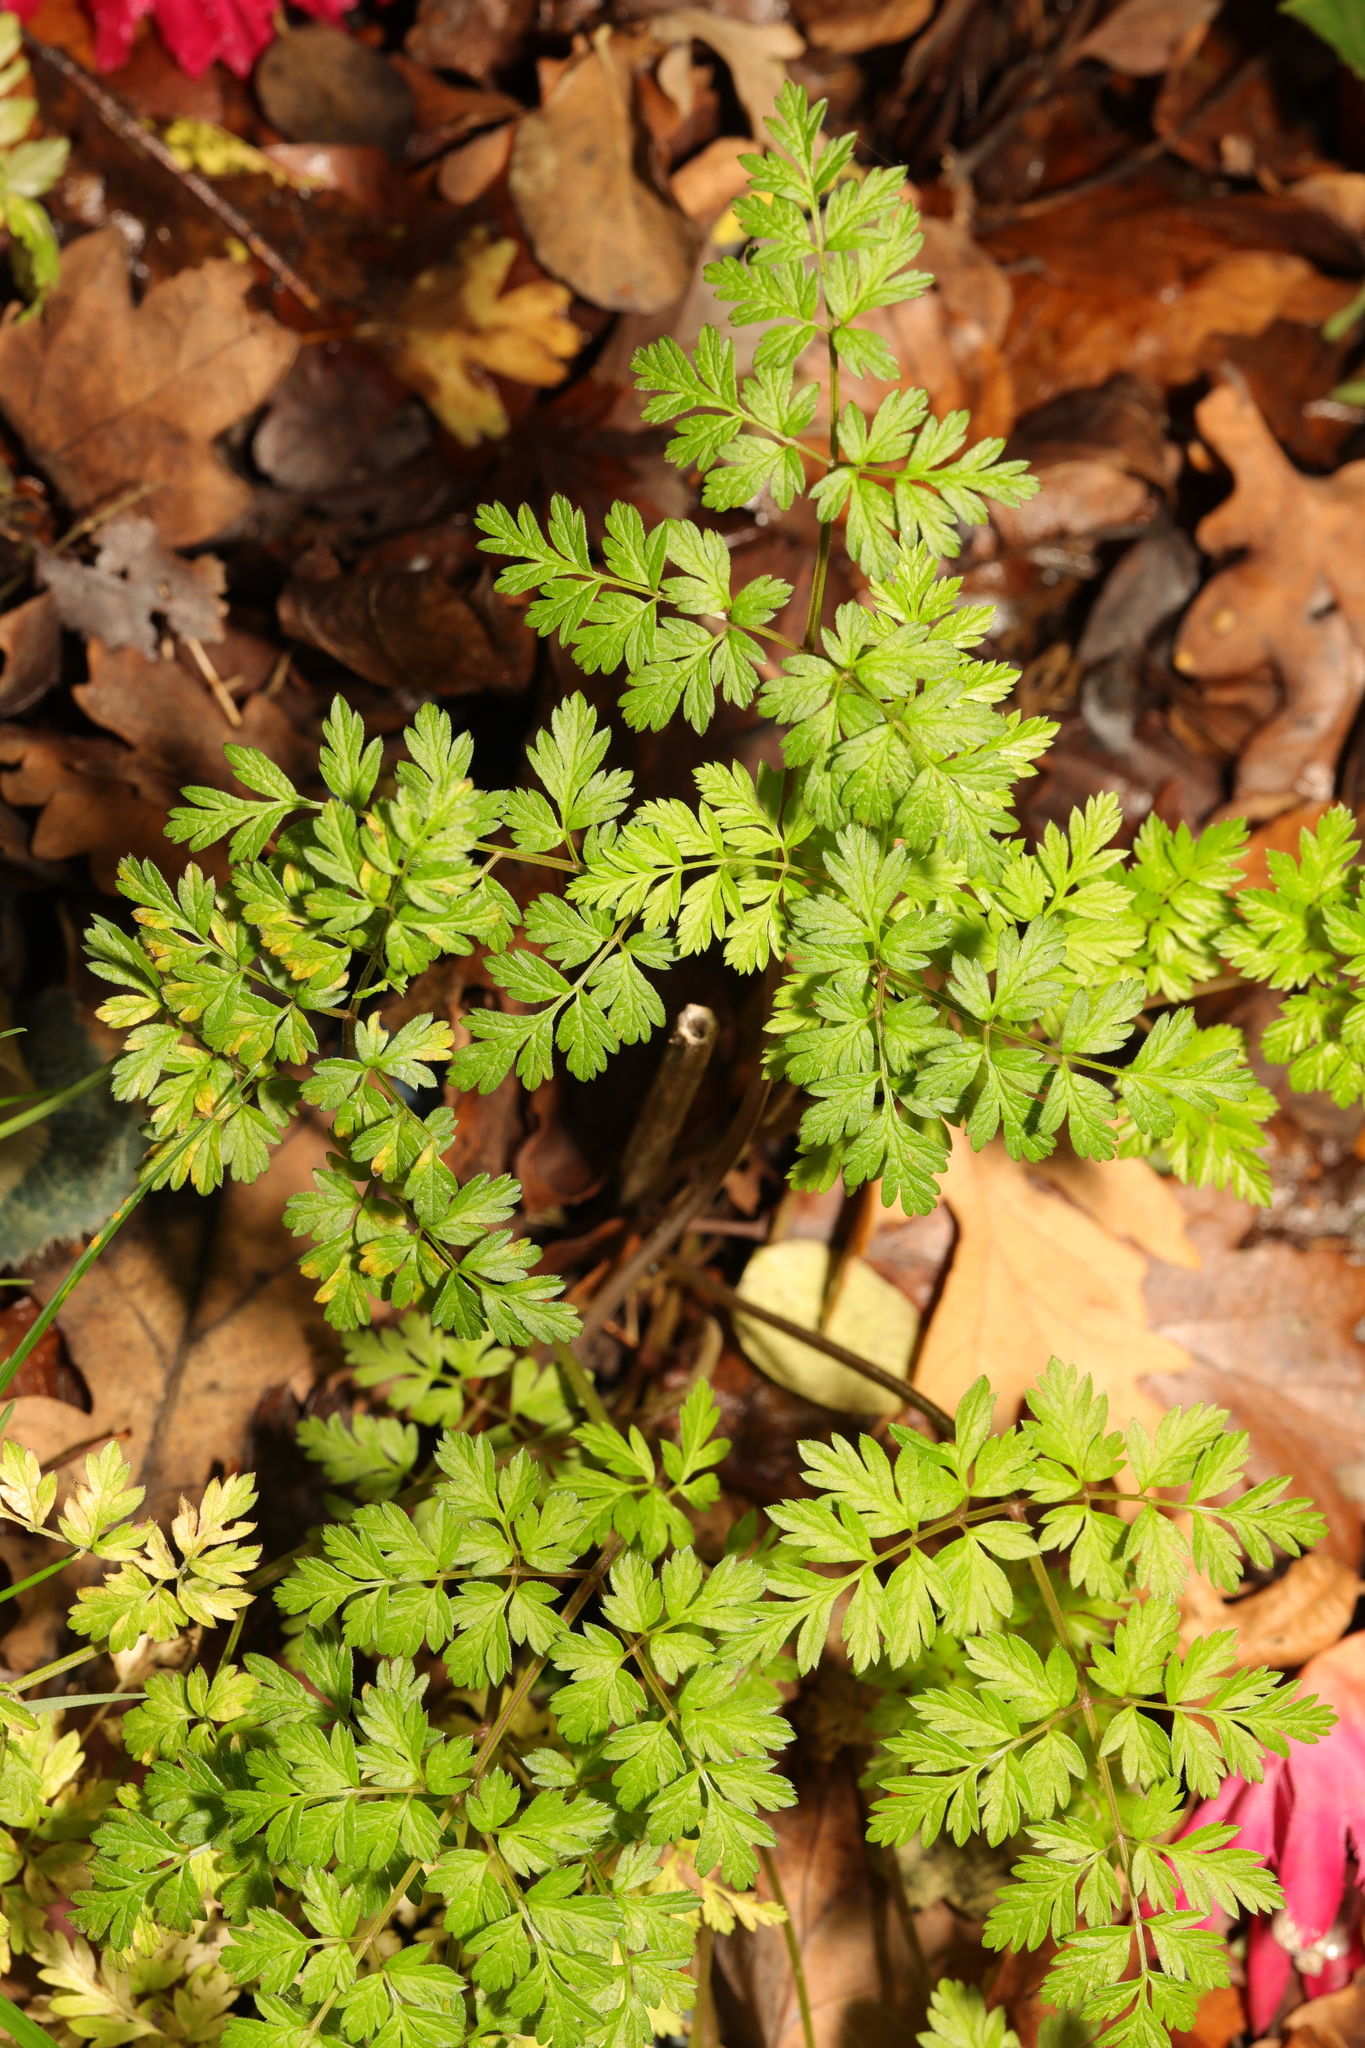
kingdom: Plantae
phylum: Tracheophyta
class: Magnoliopsida
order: Apiales
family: Apiaceae
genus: Anthriscus
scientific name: Anthriscus sylvestris
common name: Cow parsley
